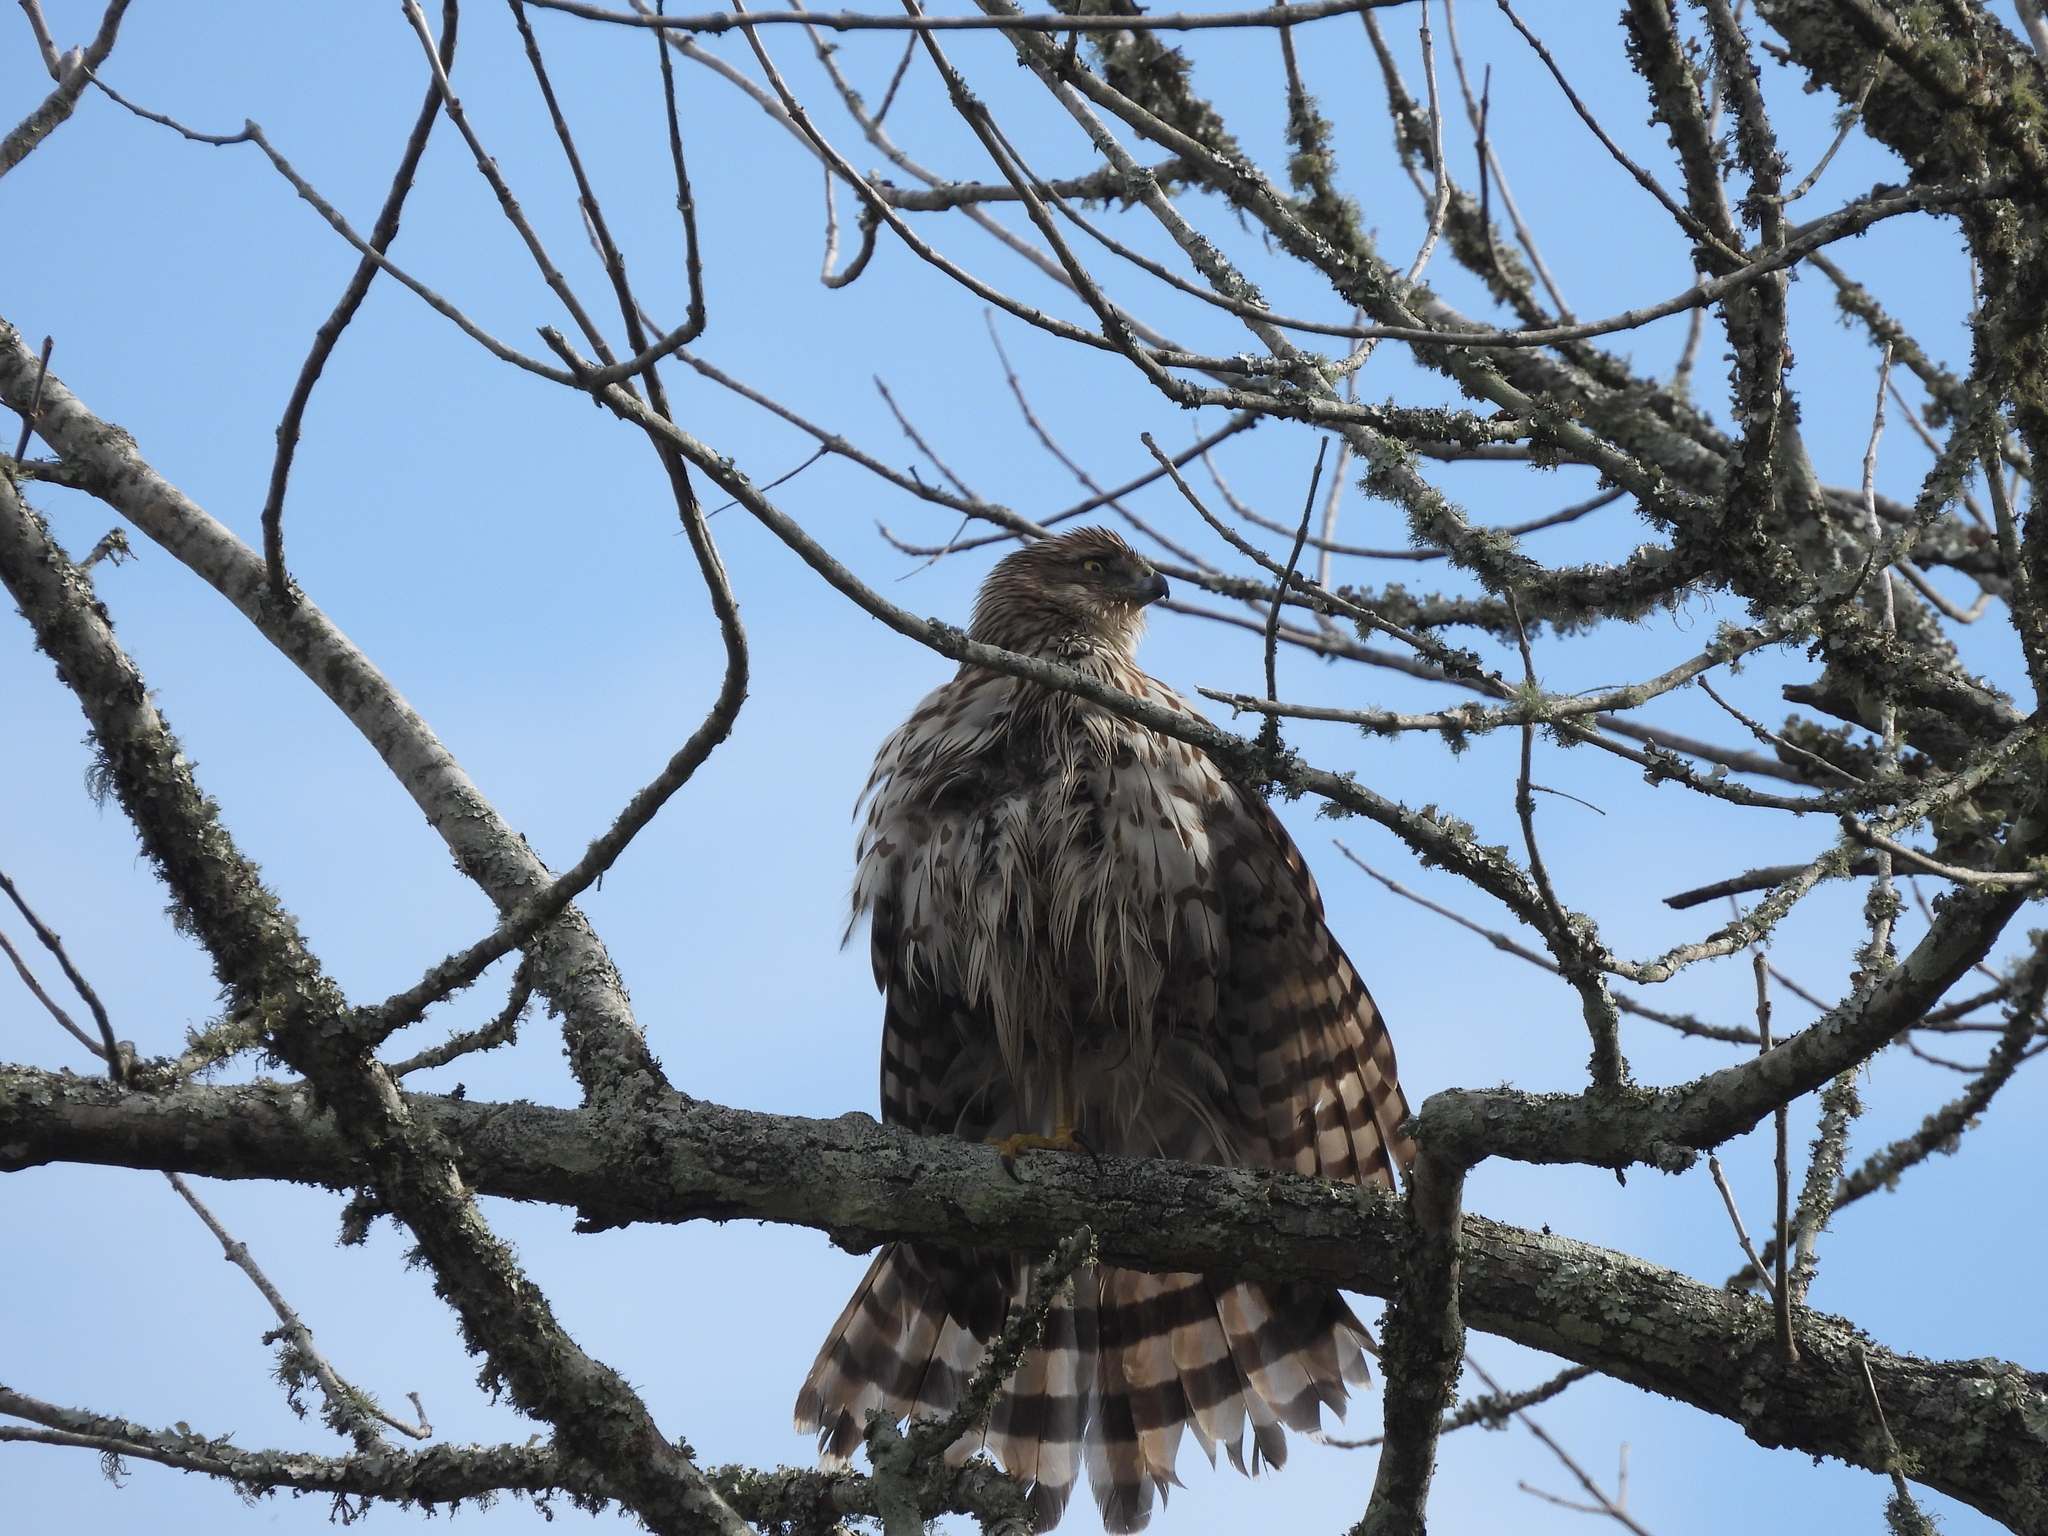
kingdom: Animalia
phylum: Chordata
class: Aves
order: Accipitriformes
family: Accipitridae
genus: Accipiter
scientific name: Accipiter cooperii
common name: Cooper's hawk
